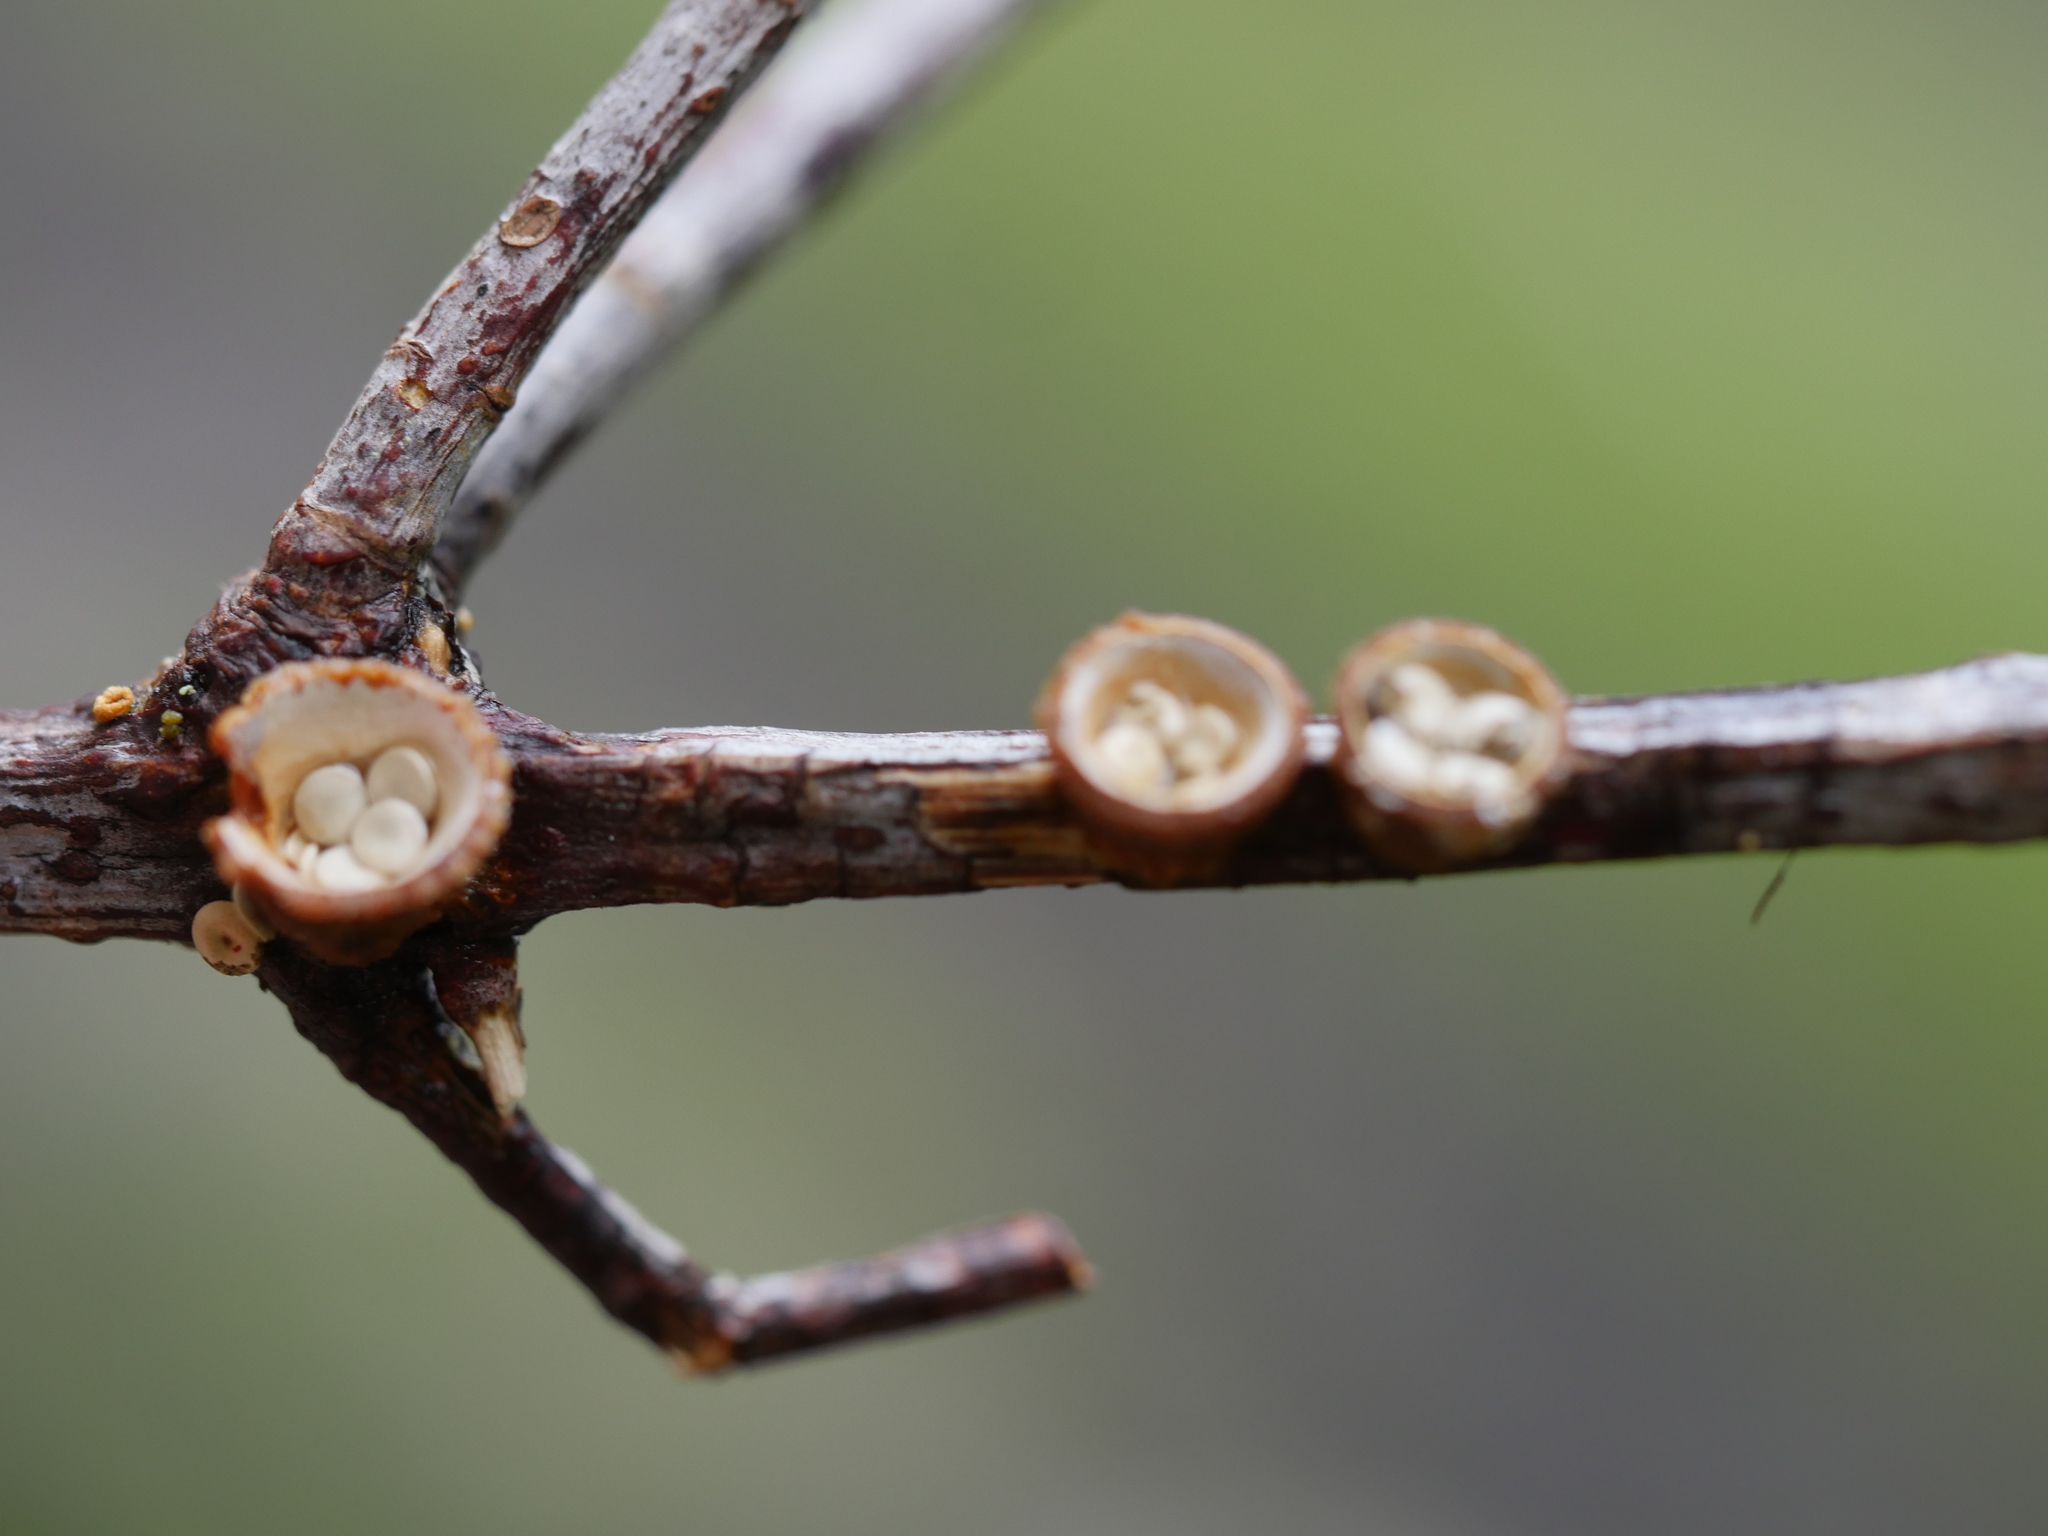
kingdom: Fungi
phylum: Basidiomycota
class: Agaricomycetes
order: Agaricales
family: Nidulariaceae
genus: Crucibulum
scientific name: Crucibulum laeve
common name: Common bird's nest
